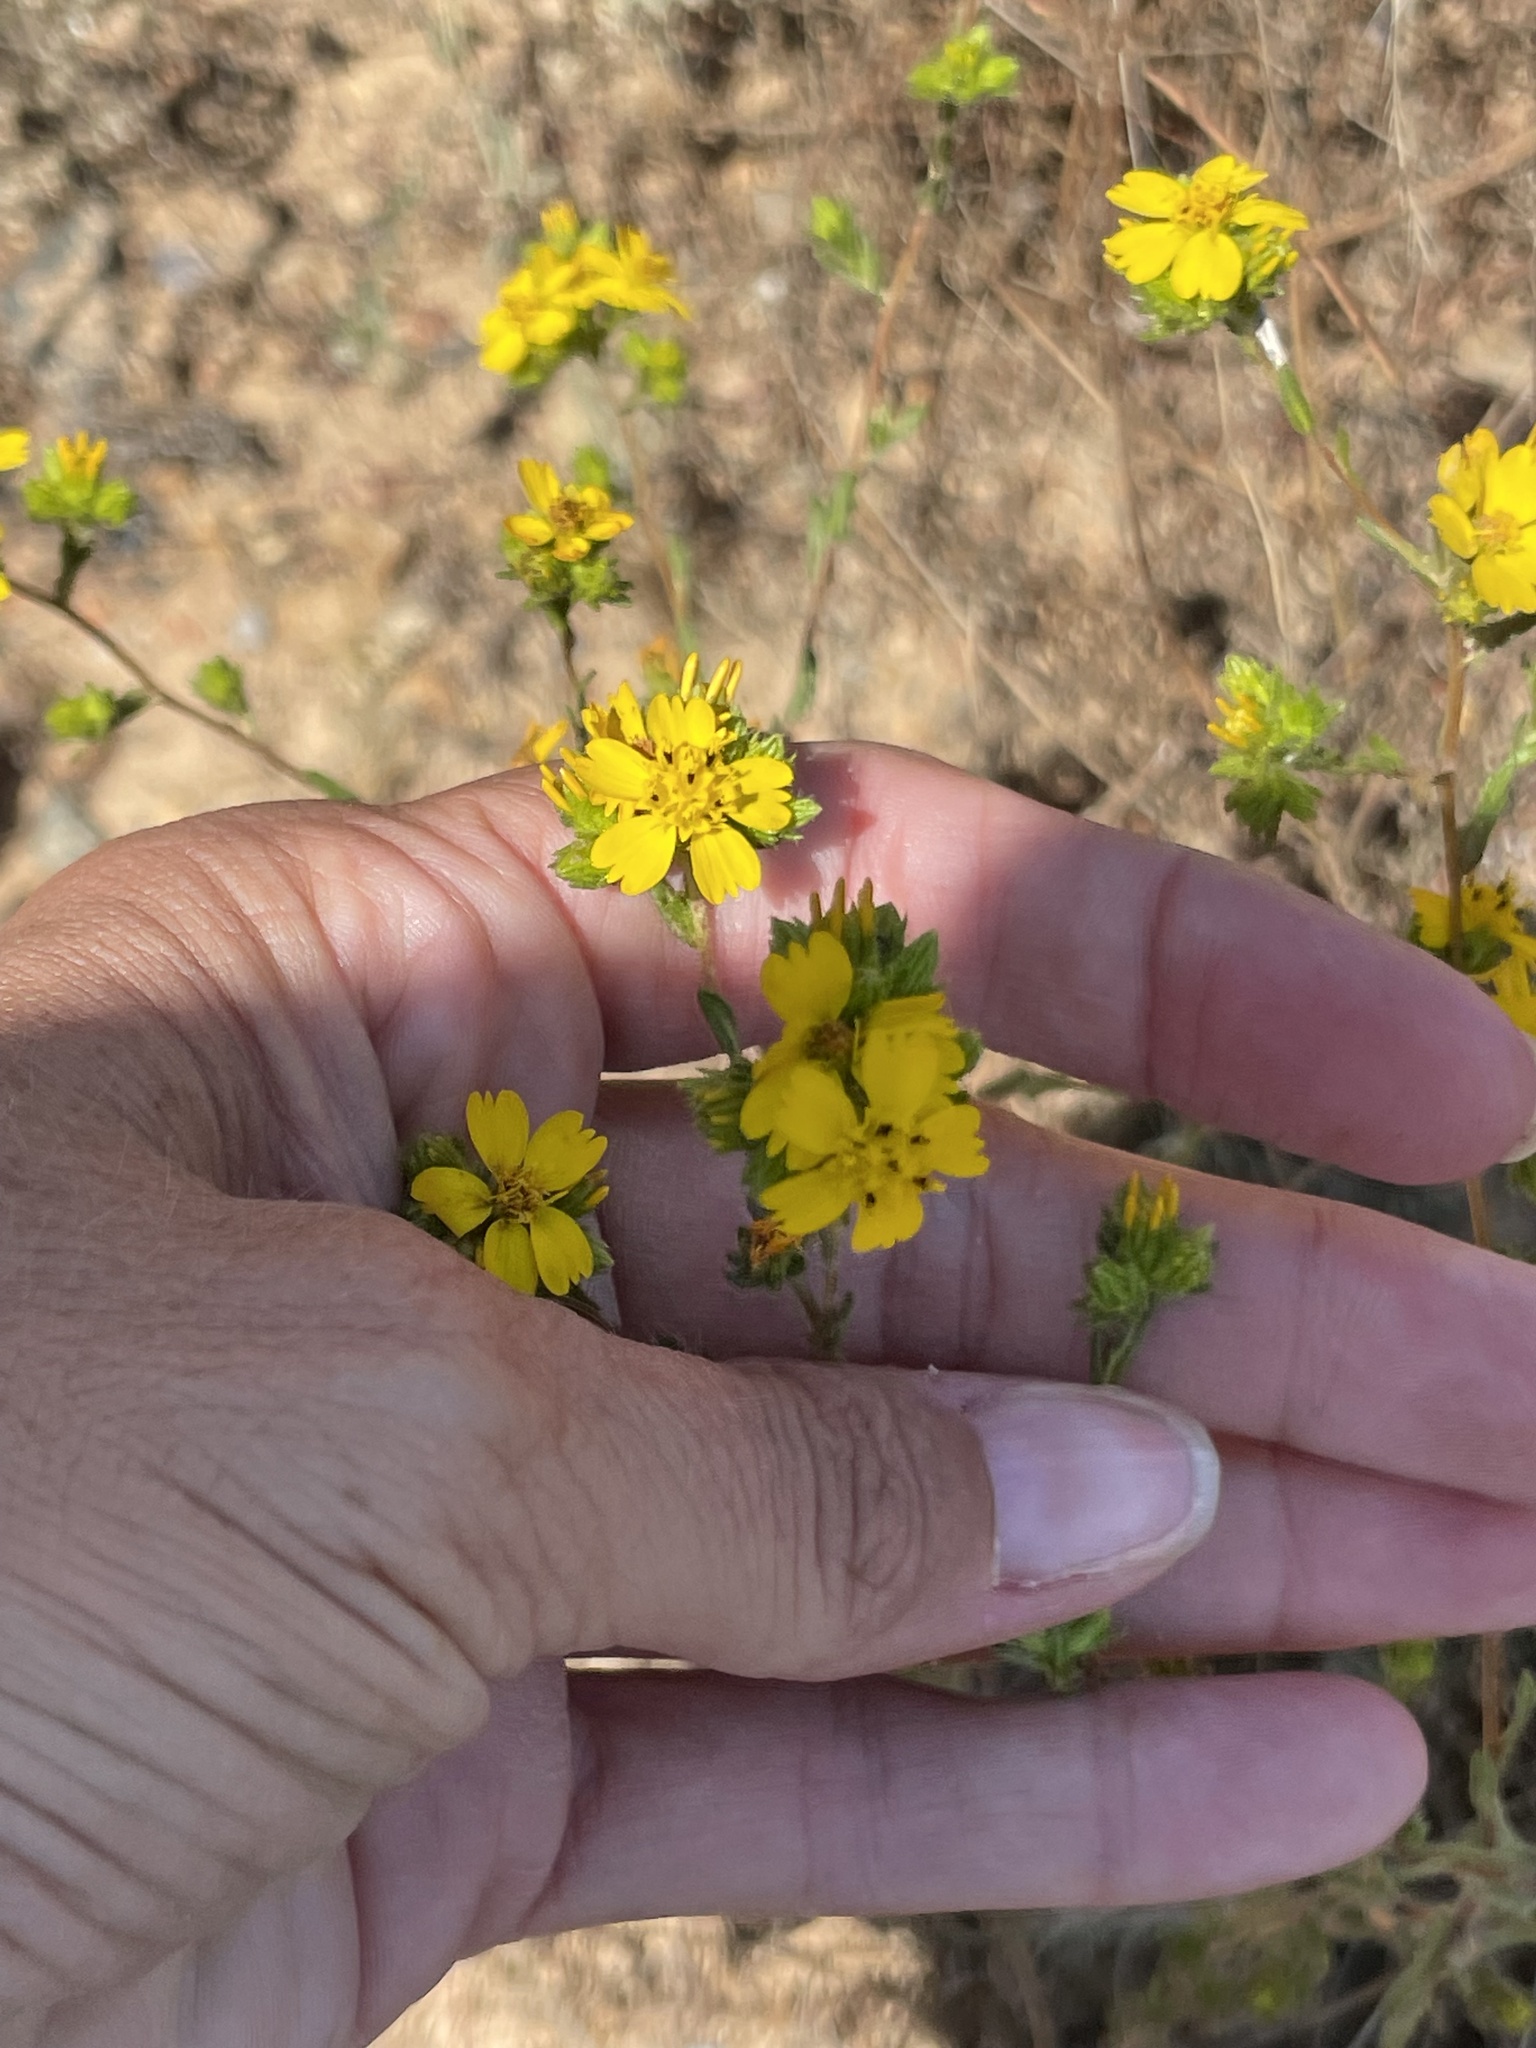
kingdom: Plantae
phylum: Tracheophyta
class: Magnoliopsida
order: Asterales
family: Asteraceae
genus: Deinandra
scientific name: Deinandra fasciculata
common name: Clustered tarweed
